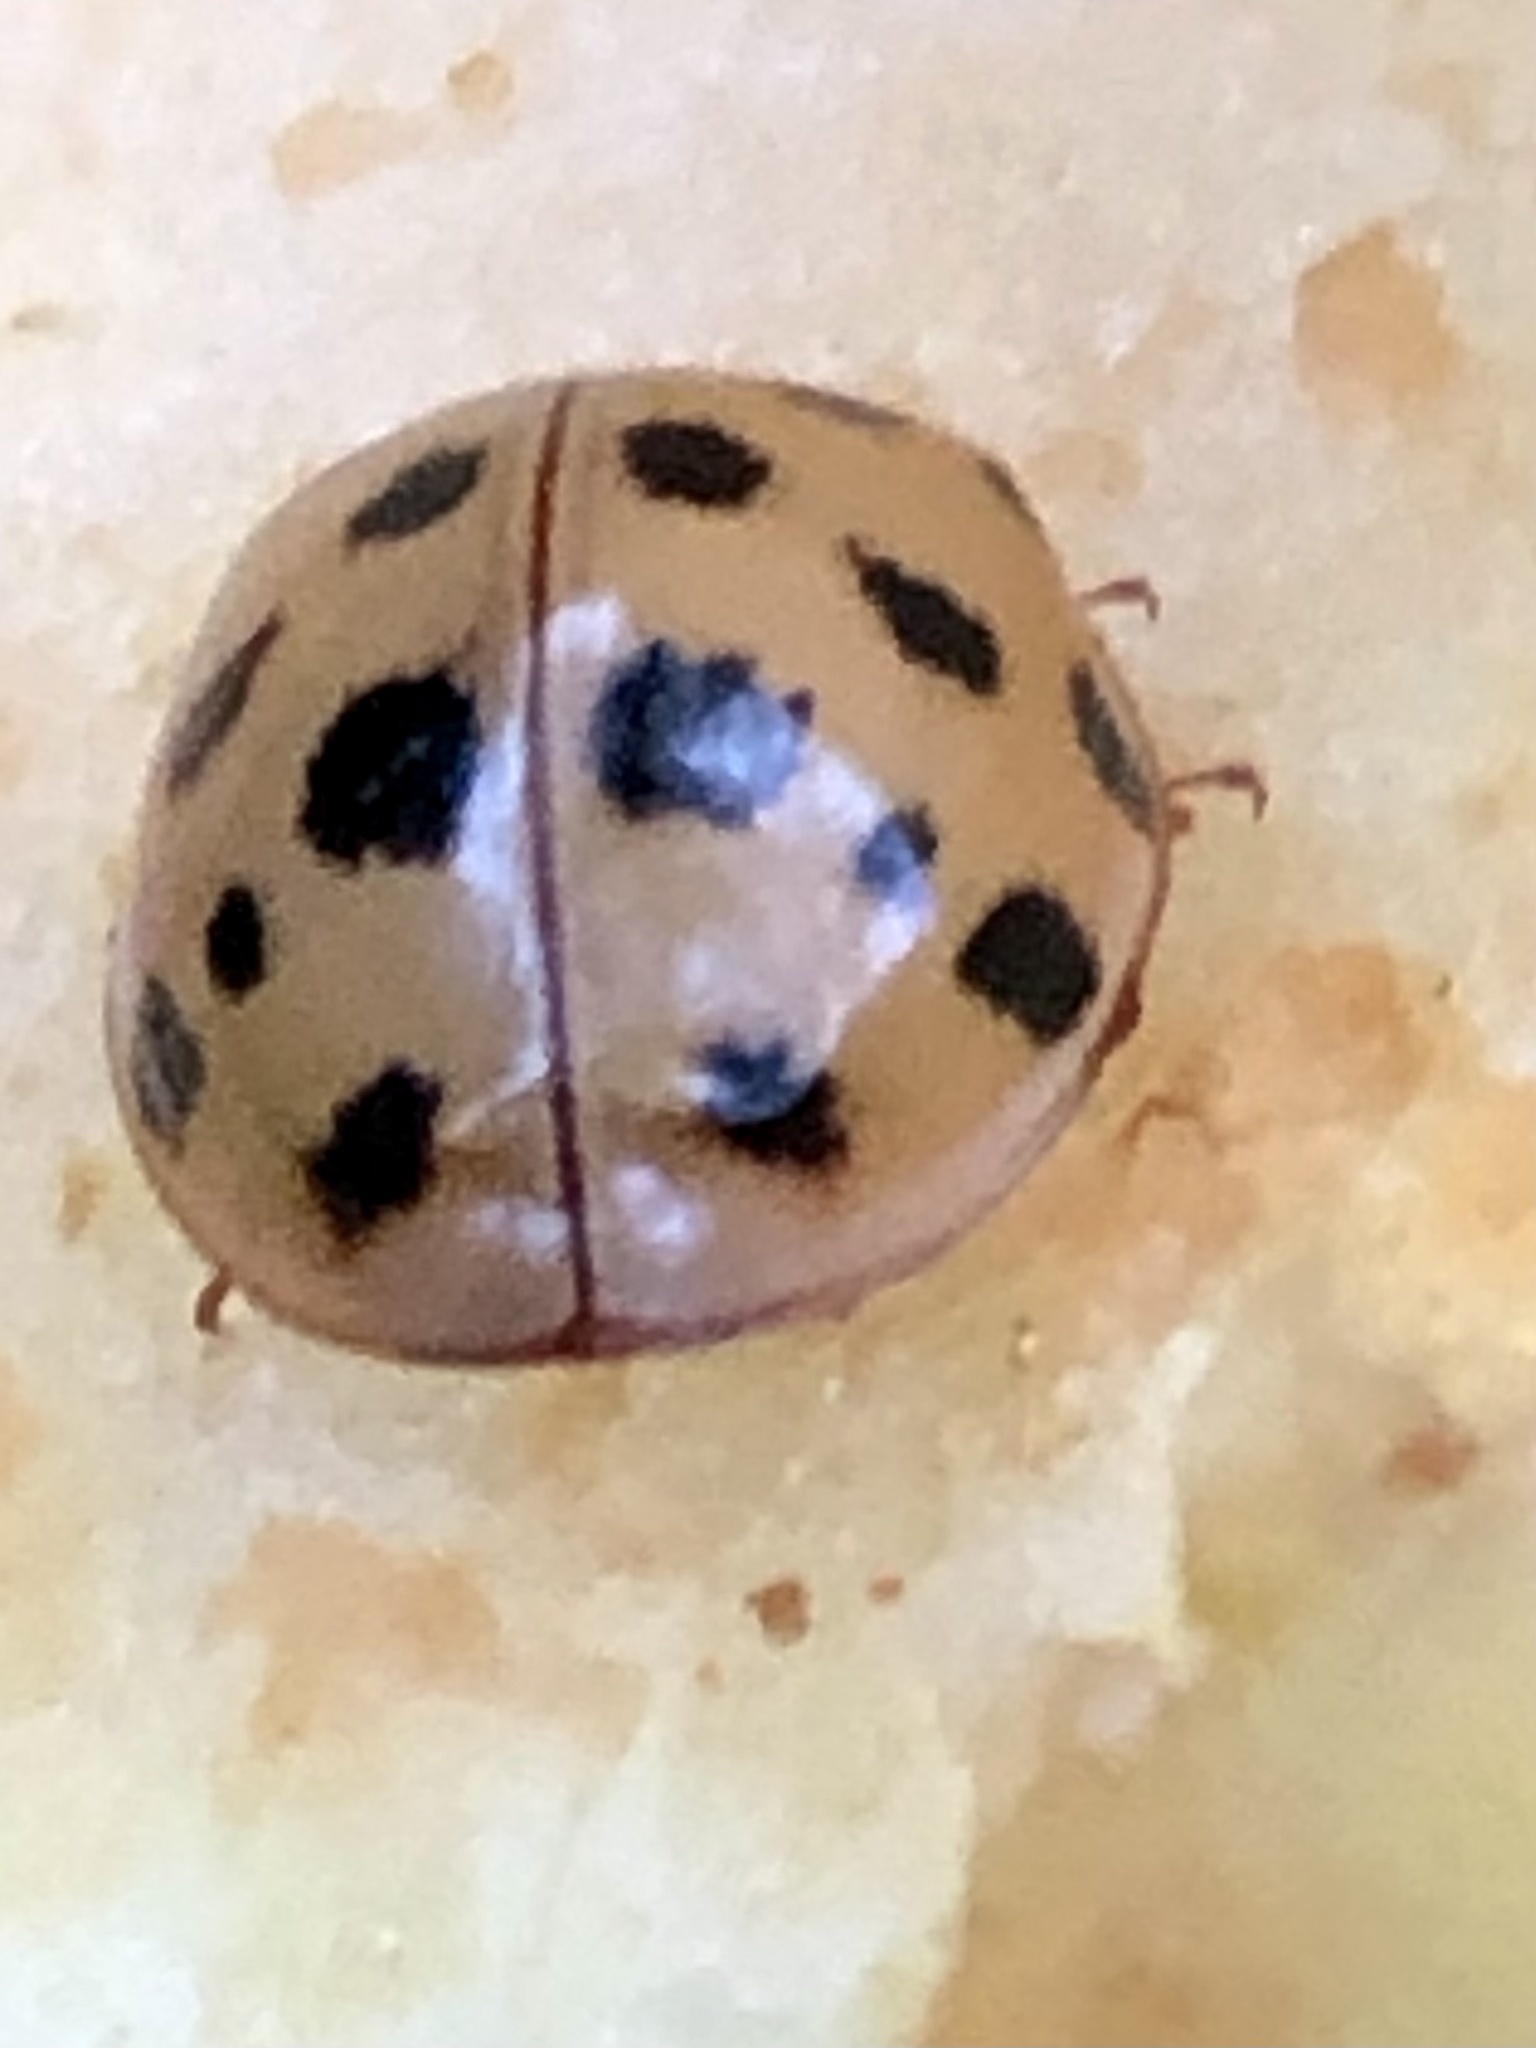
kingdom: Animalia
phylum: Arthropoda
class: Insecta
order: Coleoptera
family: Coccinellidae
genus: Harmonia
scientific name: Harmonia axyridis
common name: Harlequin ladybird
